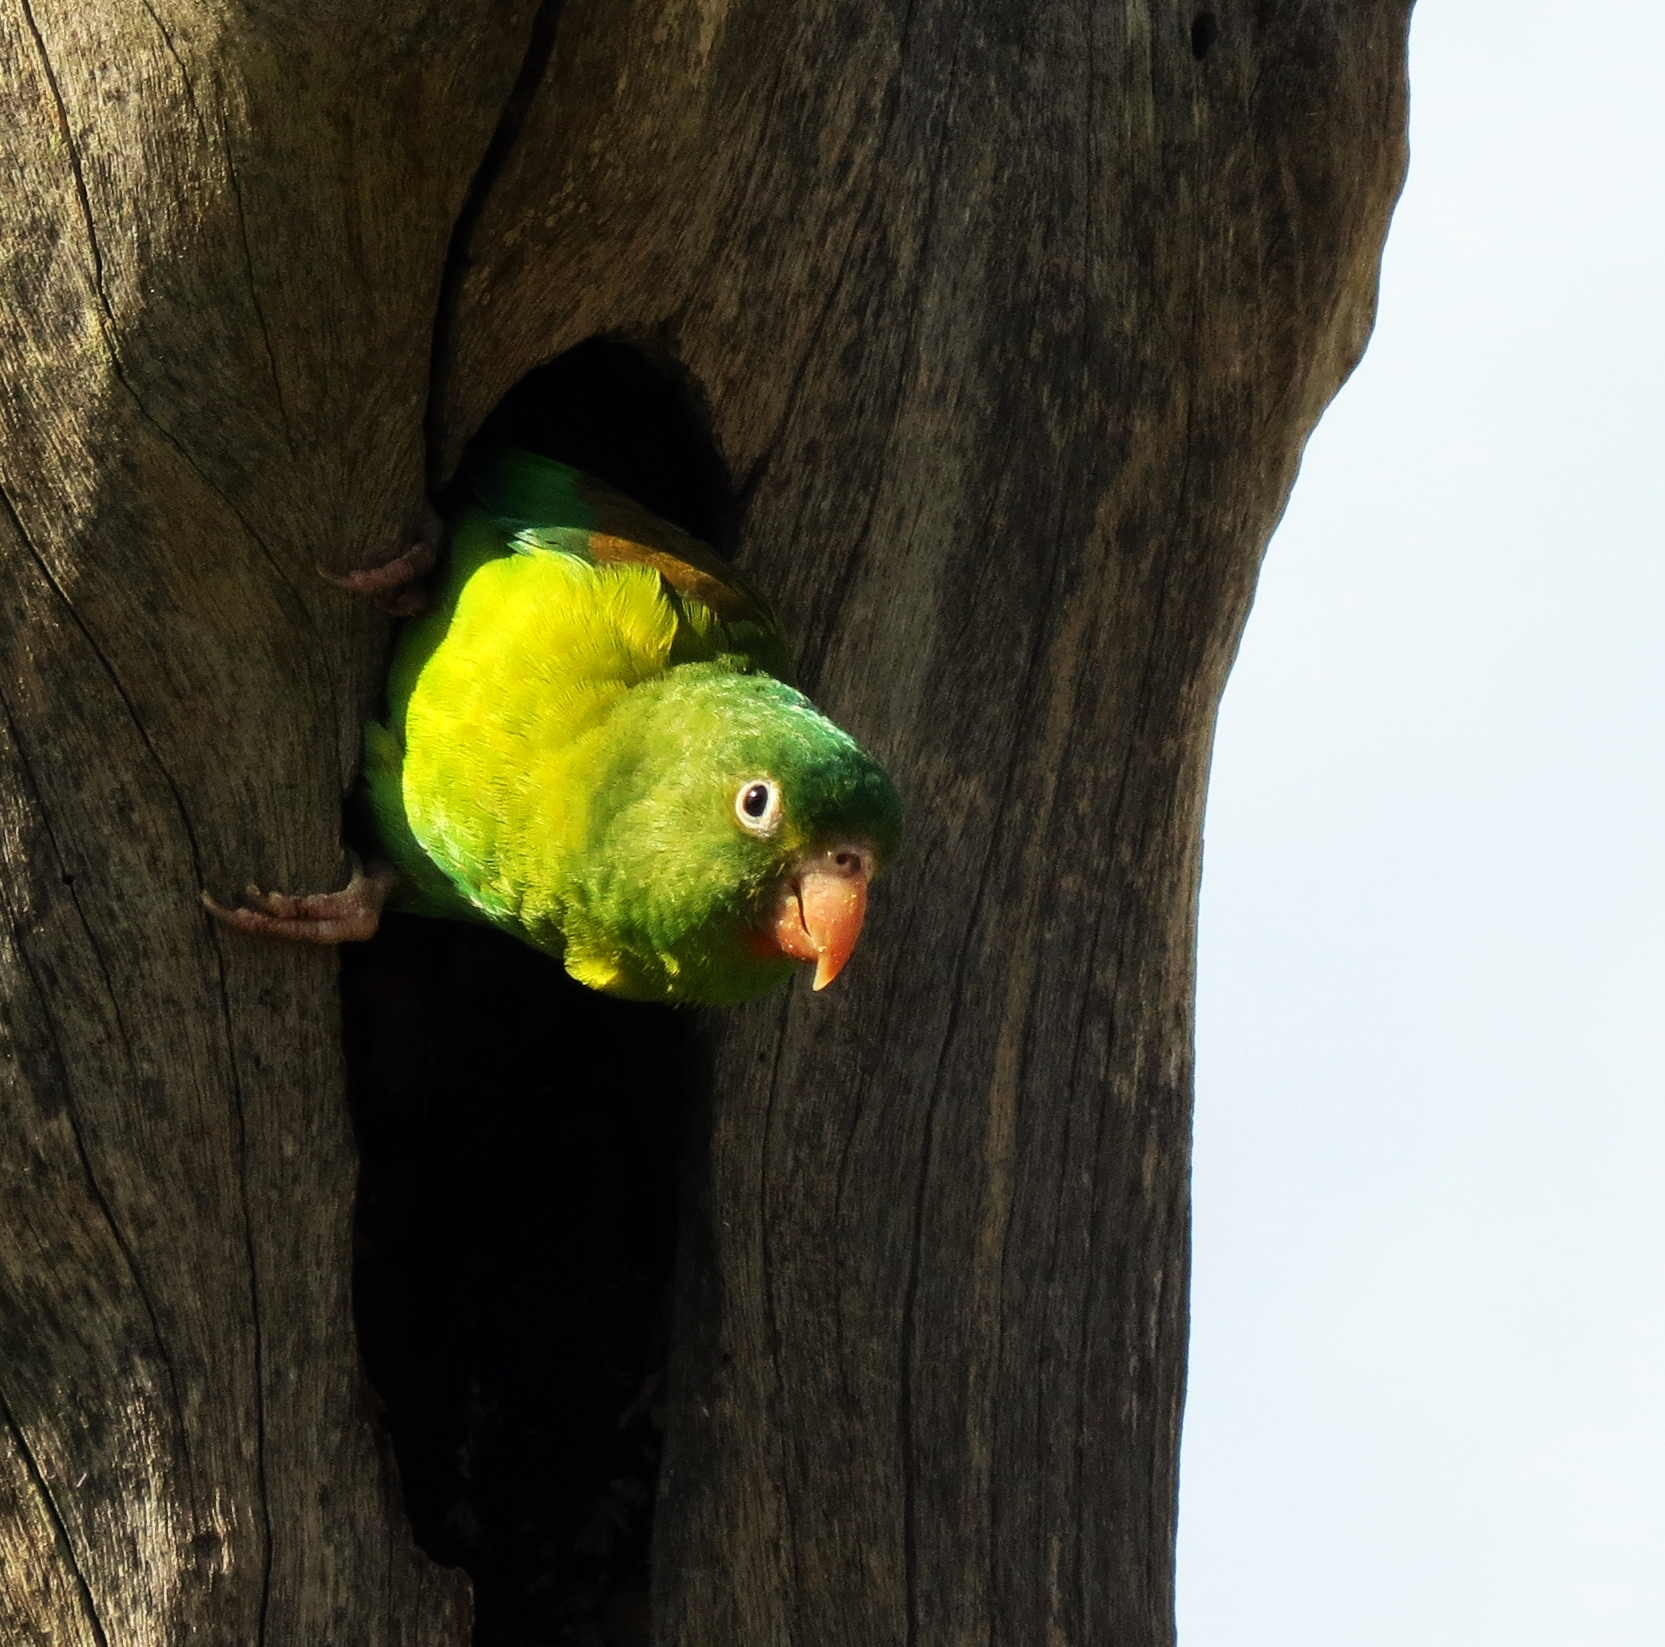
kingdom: Animalia
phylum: Chordata
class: Aves
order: Psittaciformes
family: Psittacidae
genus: Brotogeris
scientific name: Brotogeris jugularis
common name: Orange-chinned parakeet
